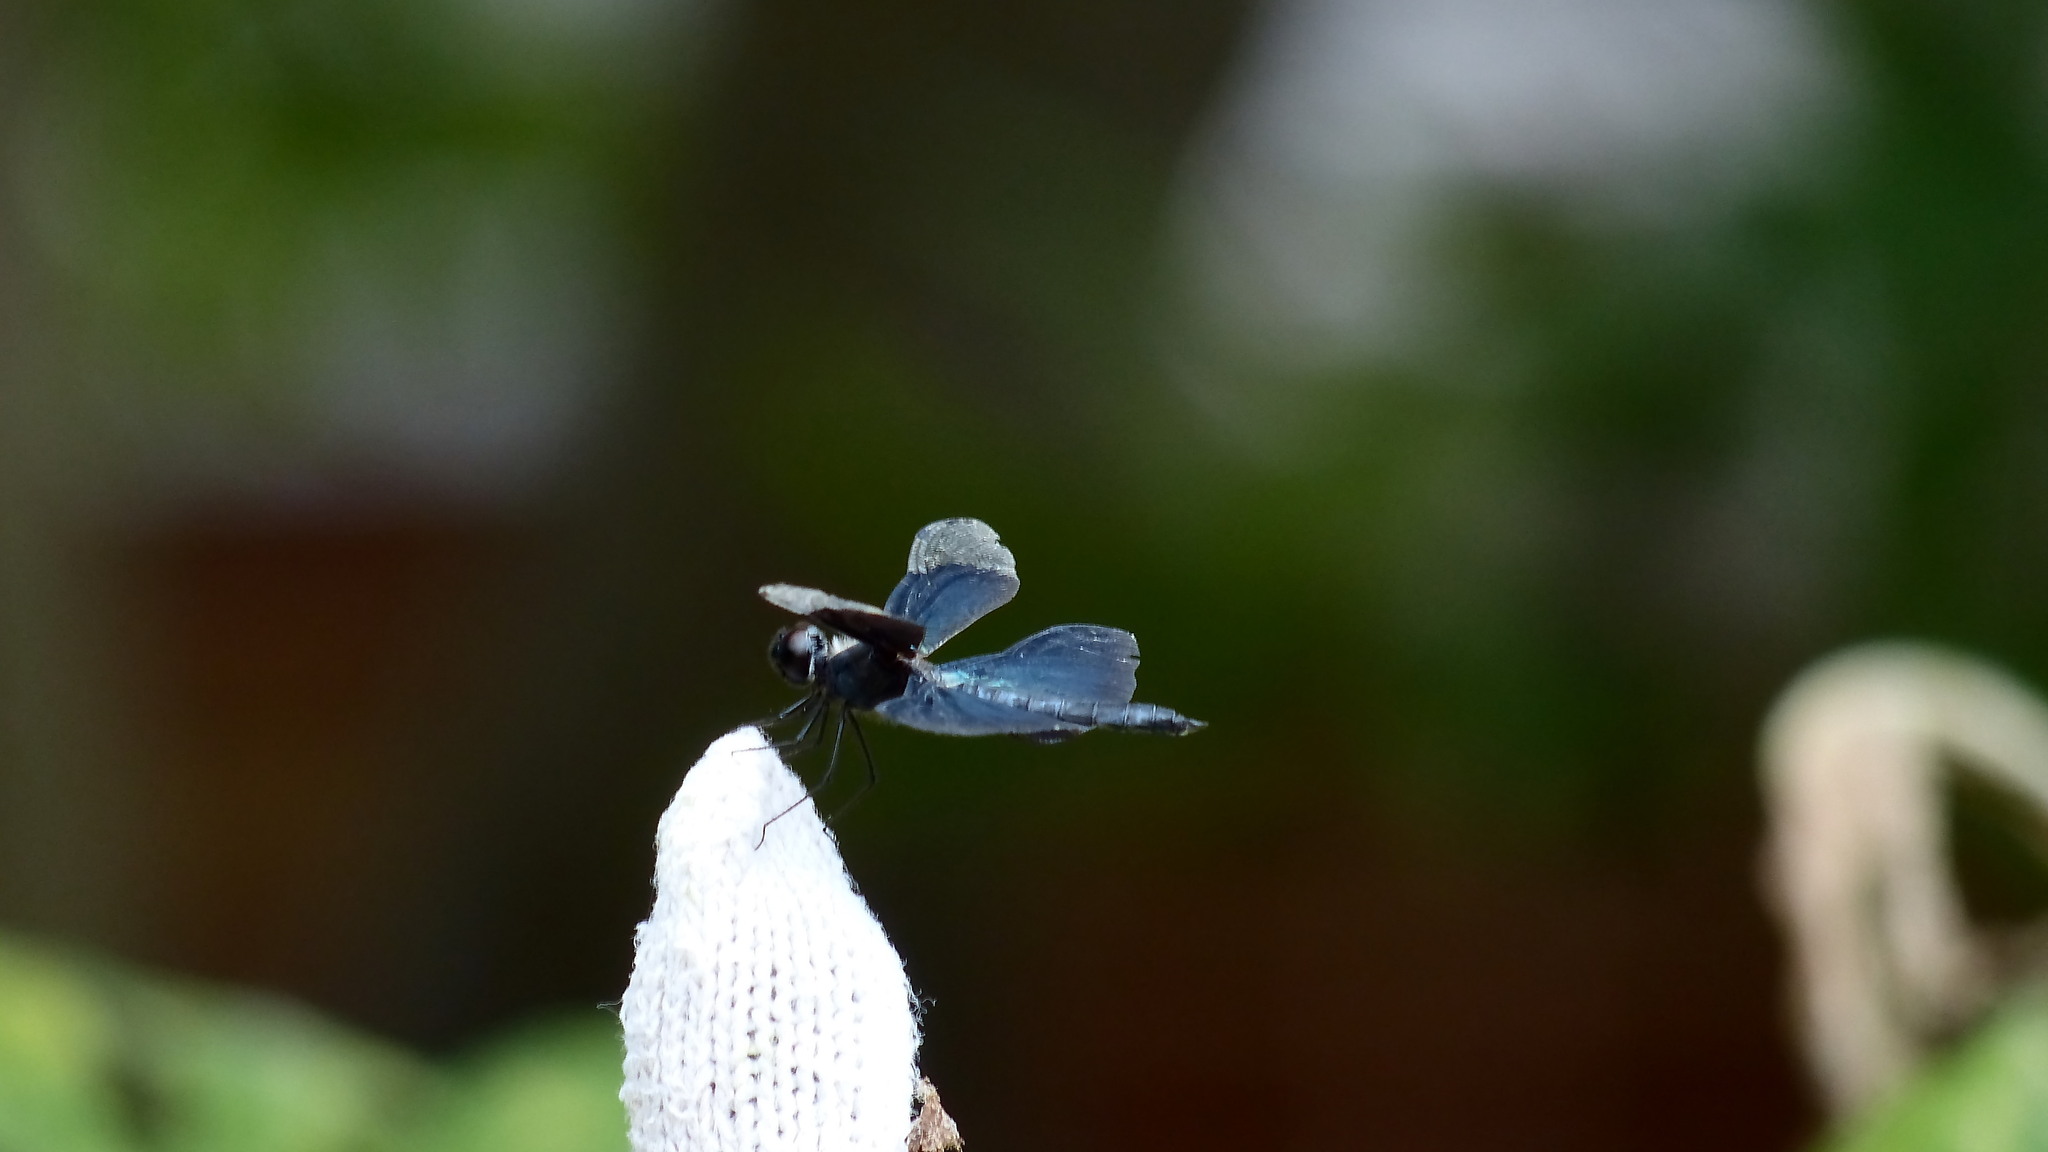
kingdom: Animalia
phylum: Arthropoda
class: Insecta
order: Odonata
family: Libellulidae
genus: Rhyothemis
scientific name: Rhyothemis fuliginosa
